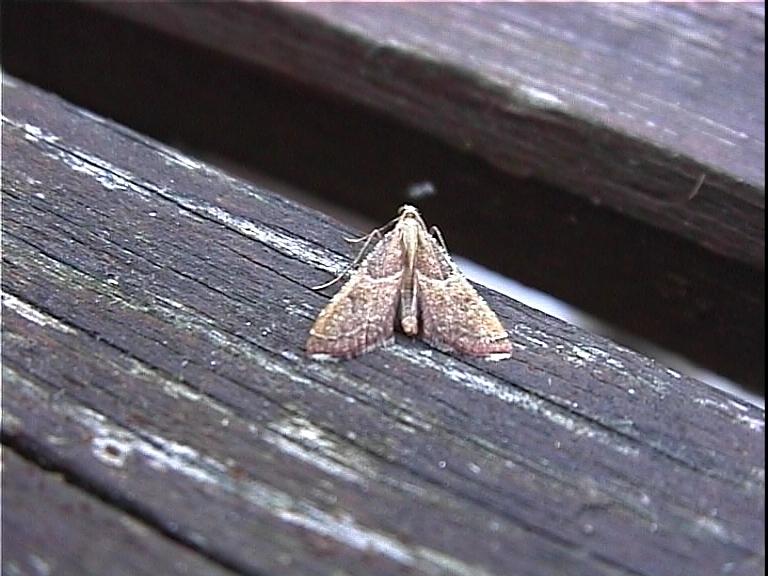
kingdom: Animalia
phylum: Arthropoda
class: Insecta
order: Lepidoptera
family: Pyralidae
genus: Endotricha
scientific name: Endotricha flammealis
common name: Rosy tabby
